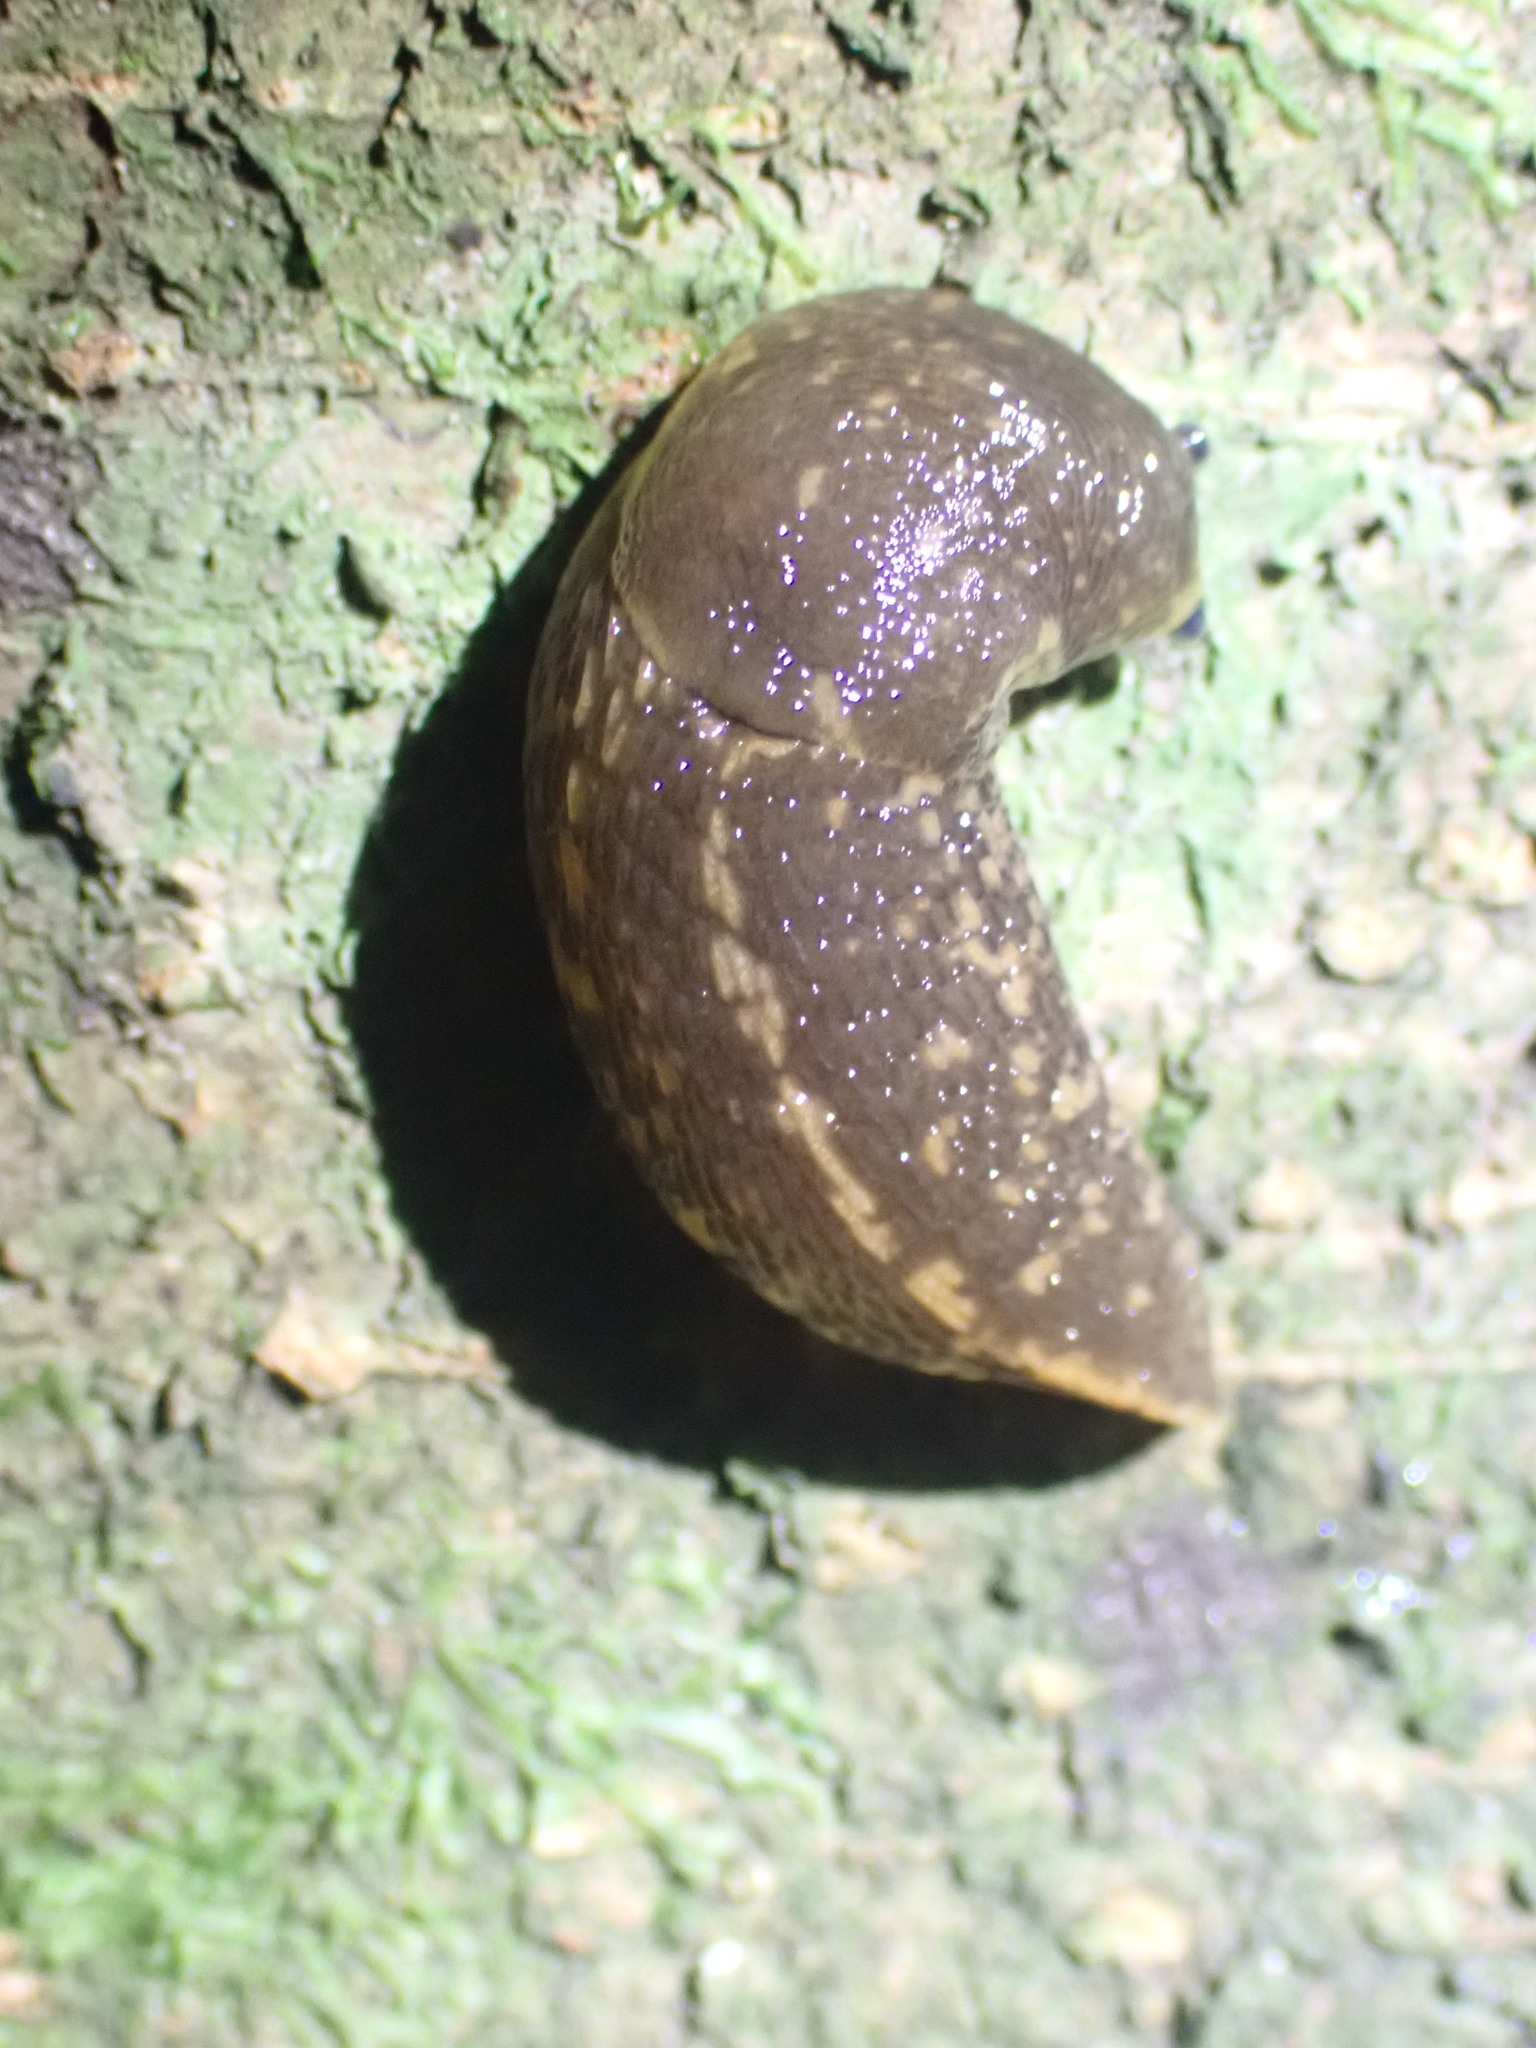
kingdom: Animalia
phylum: Mollusca
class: Gastropoda
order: Stylommatophora
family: Limacidae
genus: Limacus
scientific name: Limacus flavus
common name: Yellow gardenslug
